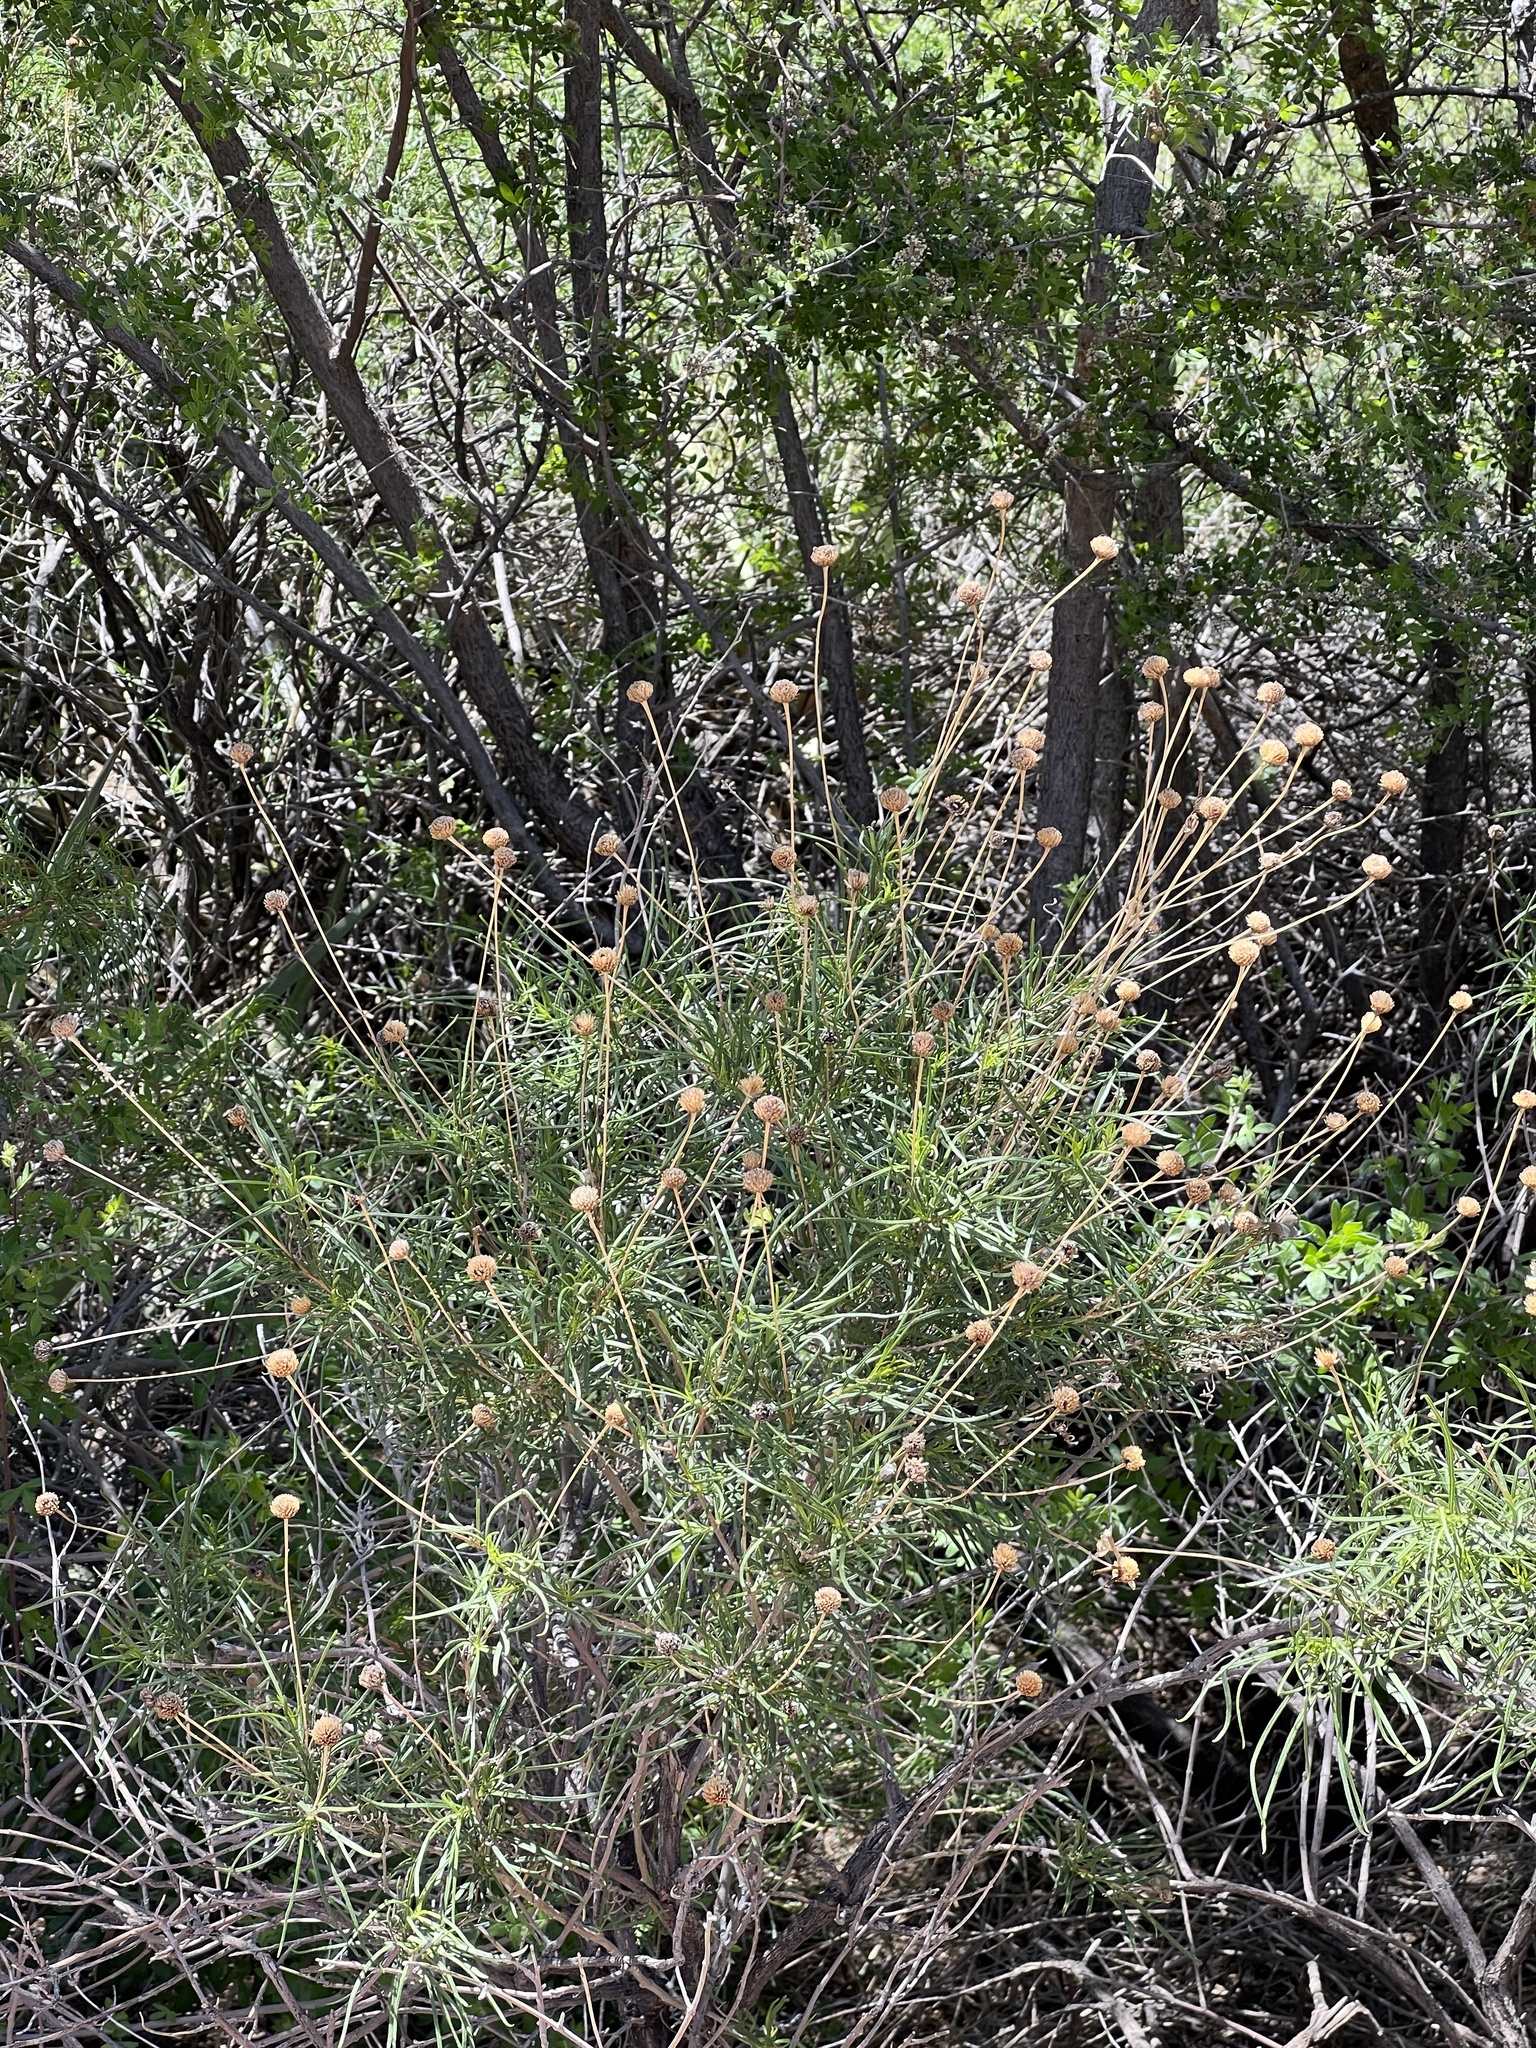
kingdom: Plantae
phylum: Tracheophyta
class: Magnoliopsida
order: Asterales
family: Asteraceae
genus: Sidneya
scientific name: Sidneya tenuifolia
